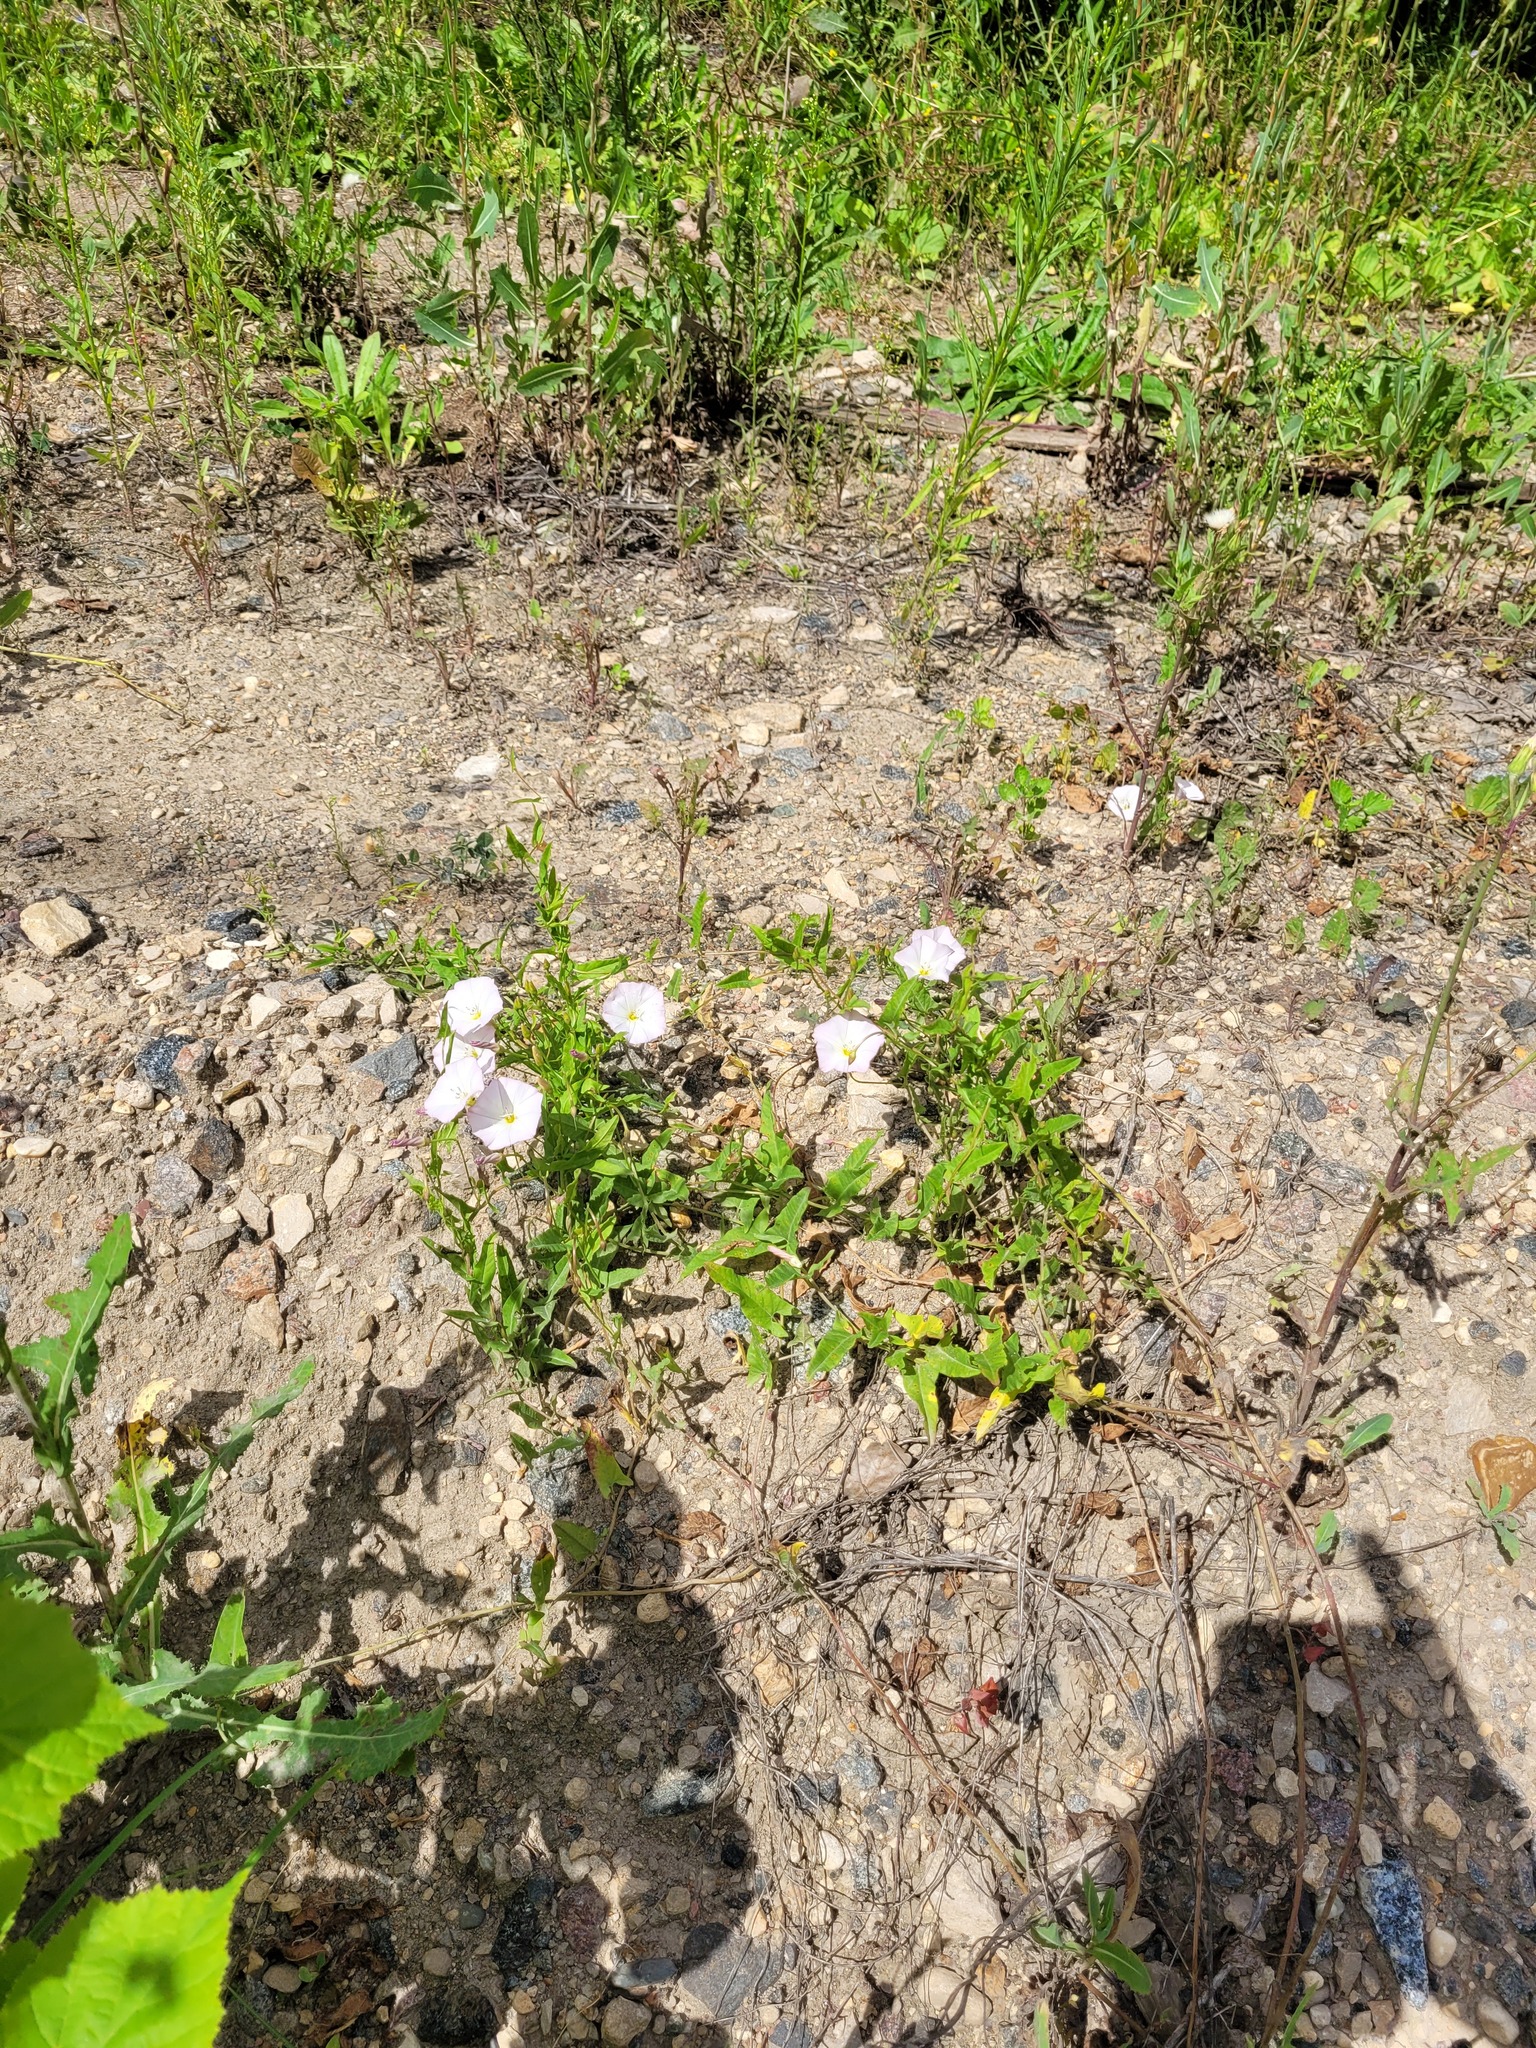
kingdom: Plantae
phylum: Tracheophyta
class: Magnoliopsida
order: Solanales
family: Convolvulaceae
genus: Convolvulus
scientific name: Convolvulus arvensis
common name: Field bindweed
